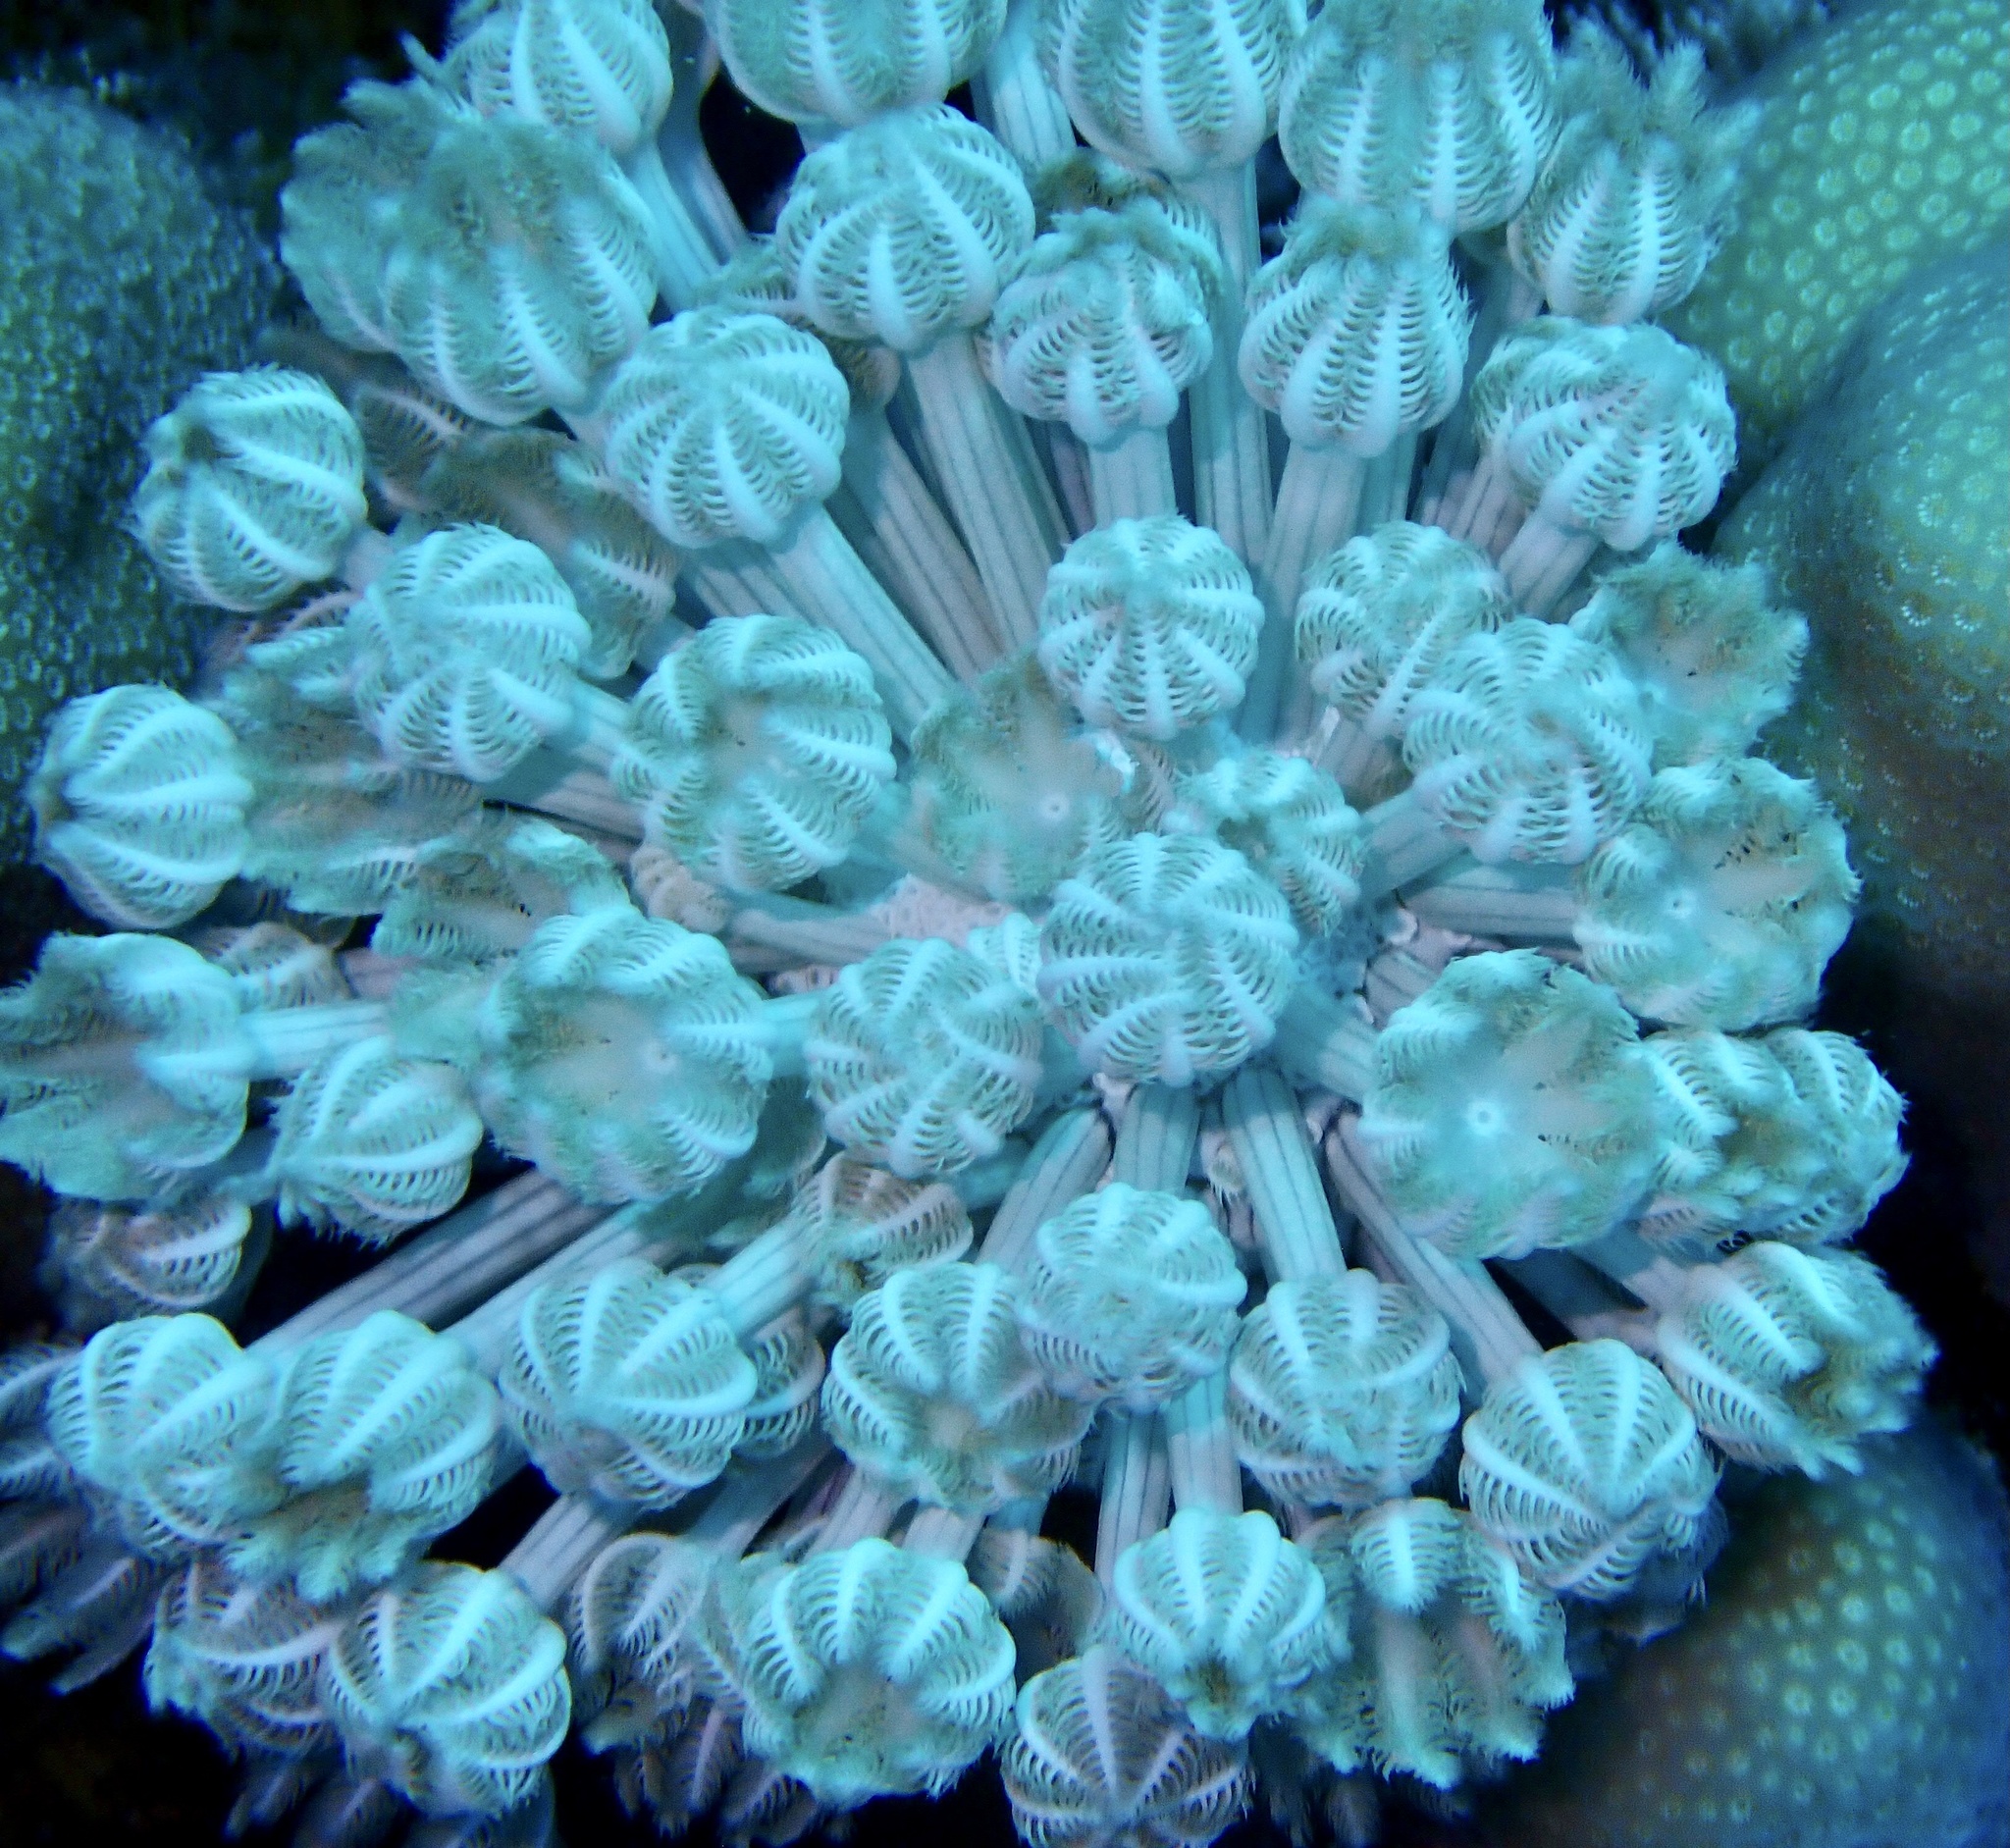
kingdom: Animalia
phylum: Cnidaria
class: Anthozoa
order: Malacalcyonacea
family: Xeniidae
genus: Heteroxenia
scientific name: Heteroxenia fuscescens
